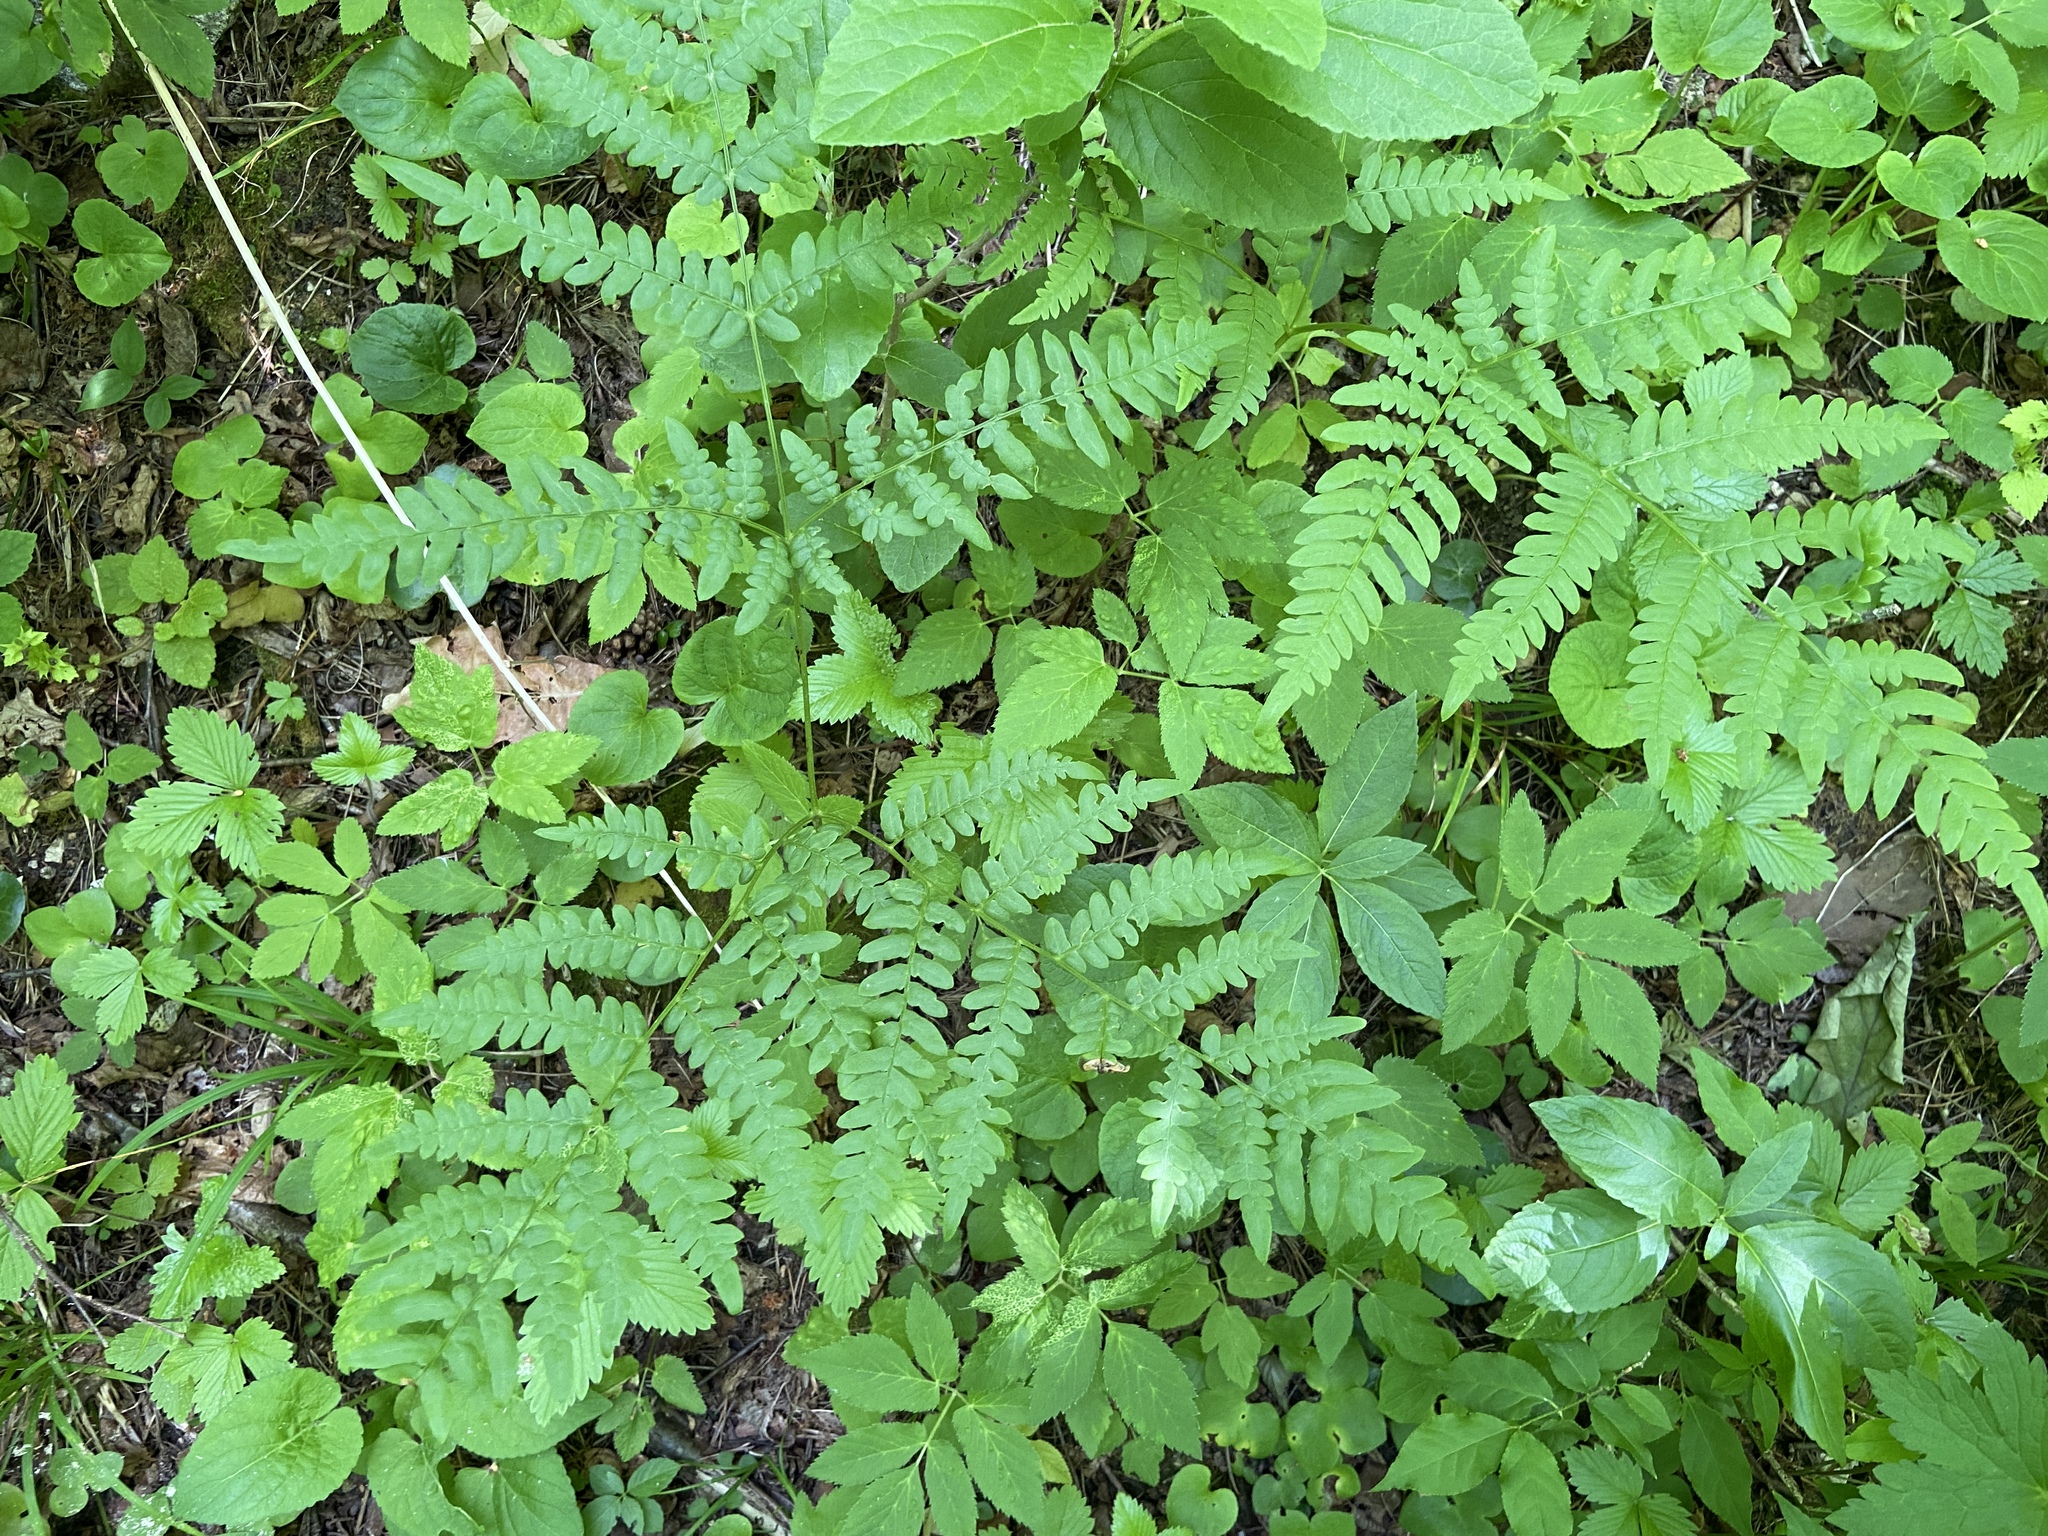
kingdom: Plantae
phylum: Tracheophyta
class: Polypodiopsida
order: Polypodiales
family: Dennstaedtiaceae
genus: Pteridium
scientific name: Pteridium aquilinum
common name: Bracken
